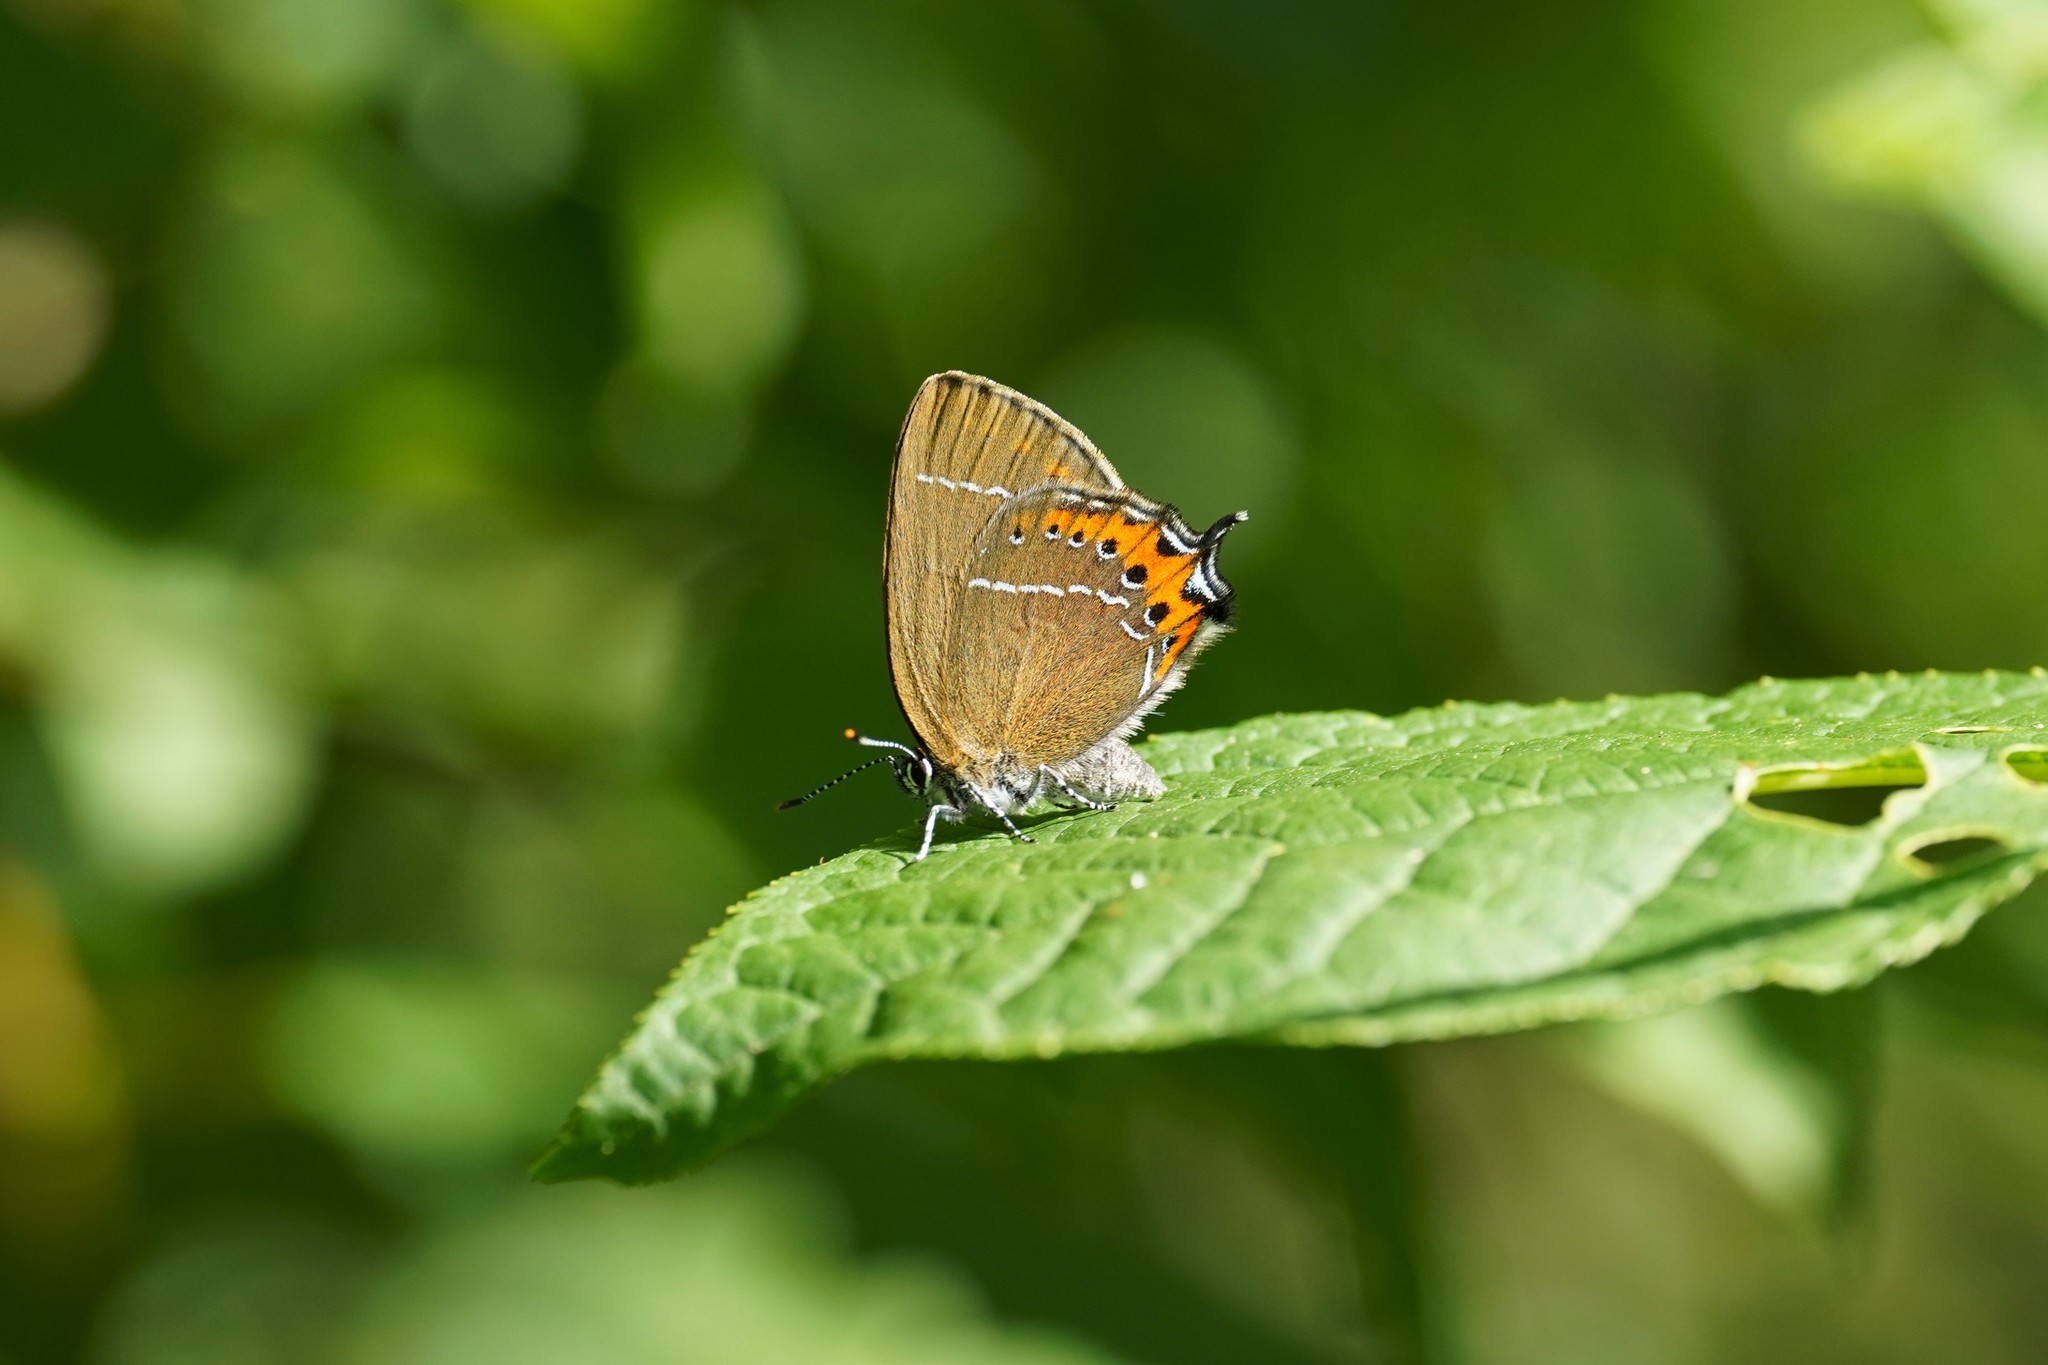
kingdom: Animalia
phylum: Arthropoda
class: Insecta
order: Lepidoptera
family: Lycaenidae
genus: Fixsenia
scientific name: Fixsenia pruni
